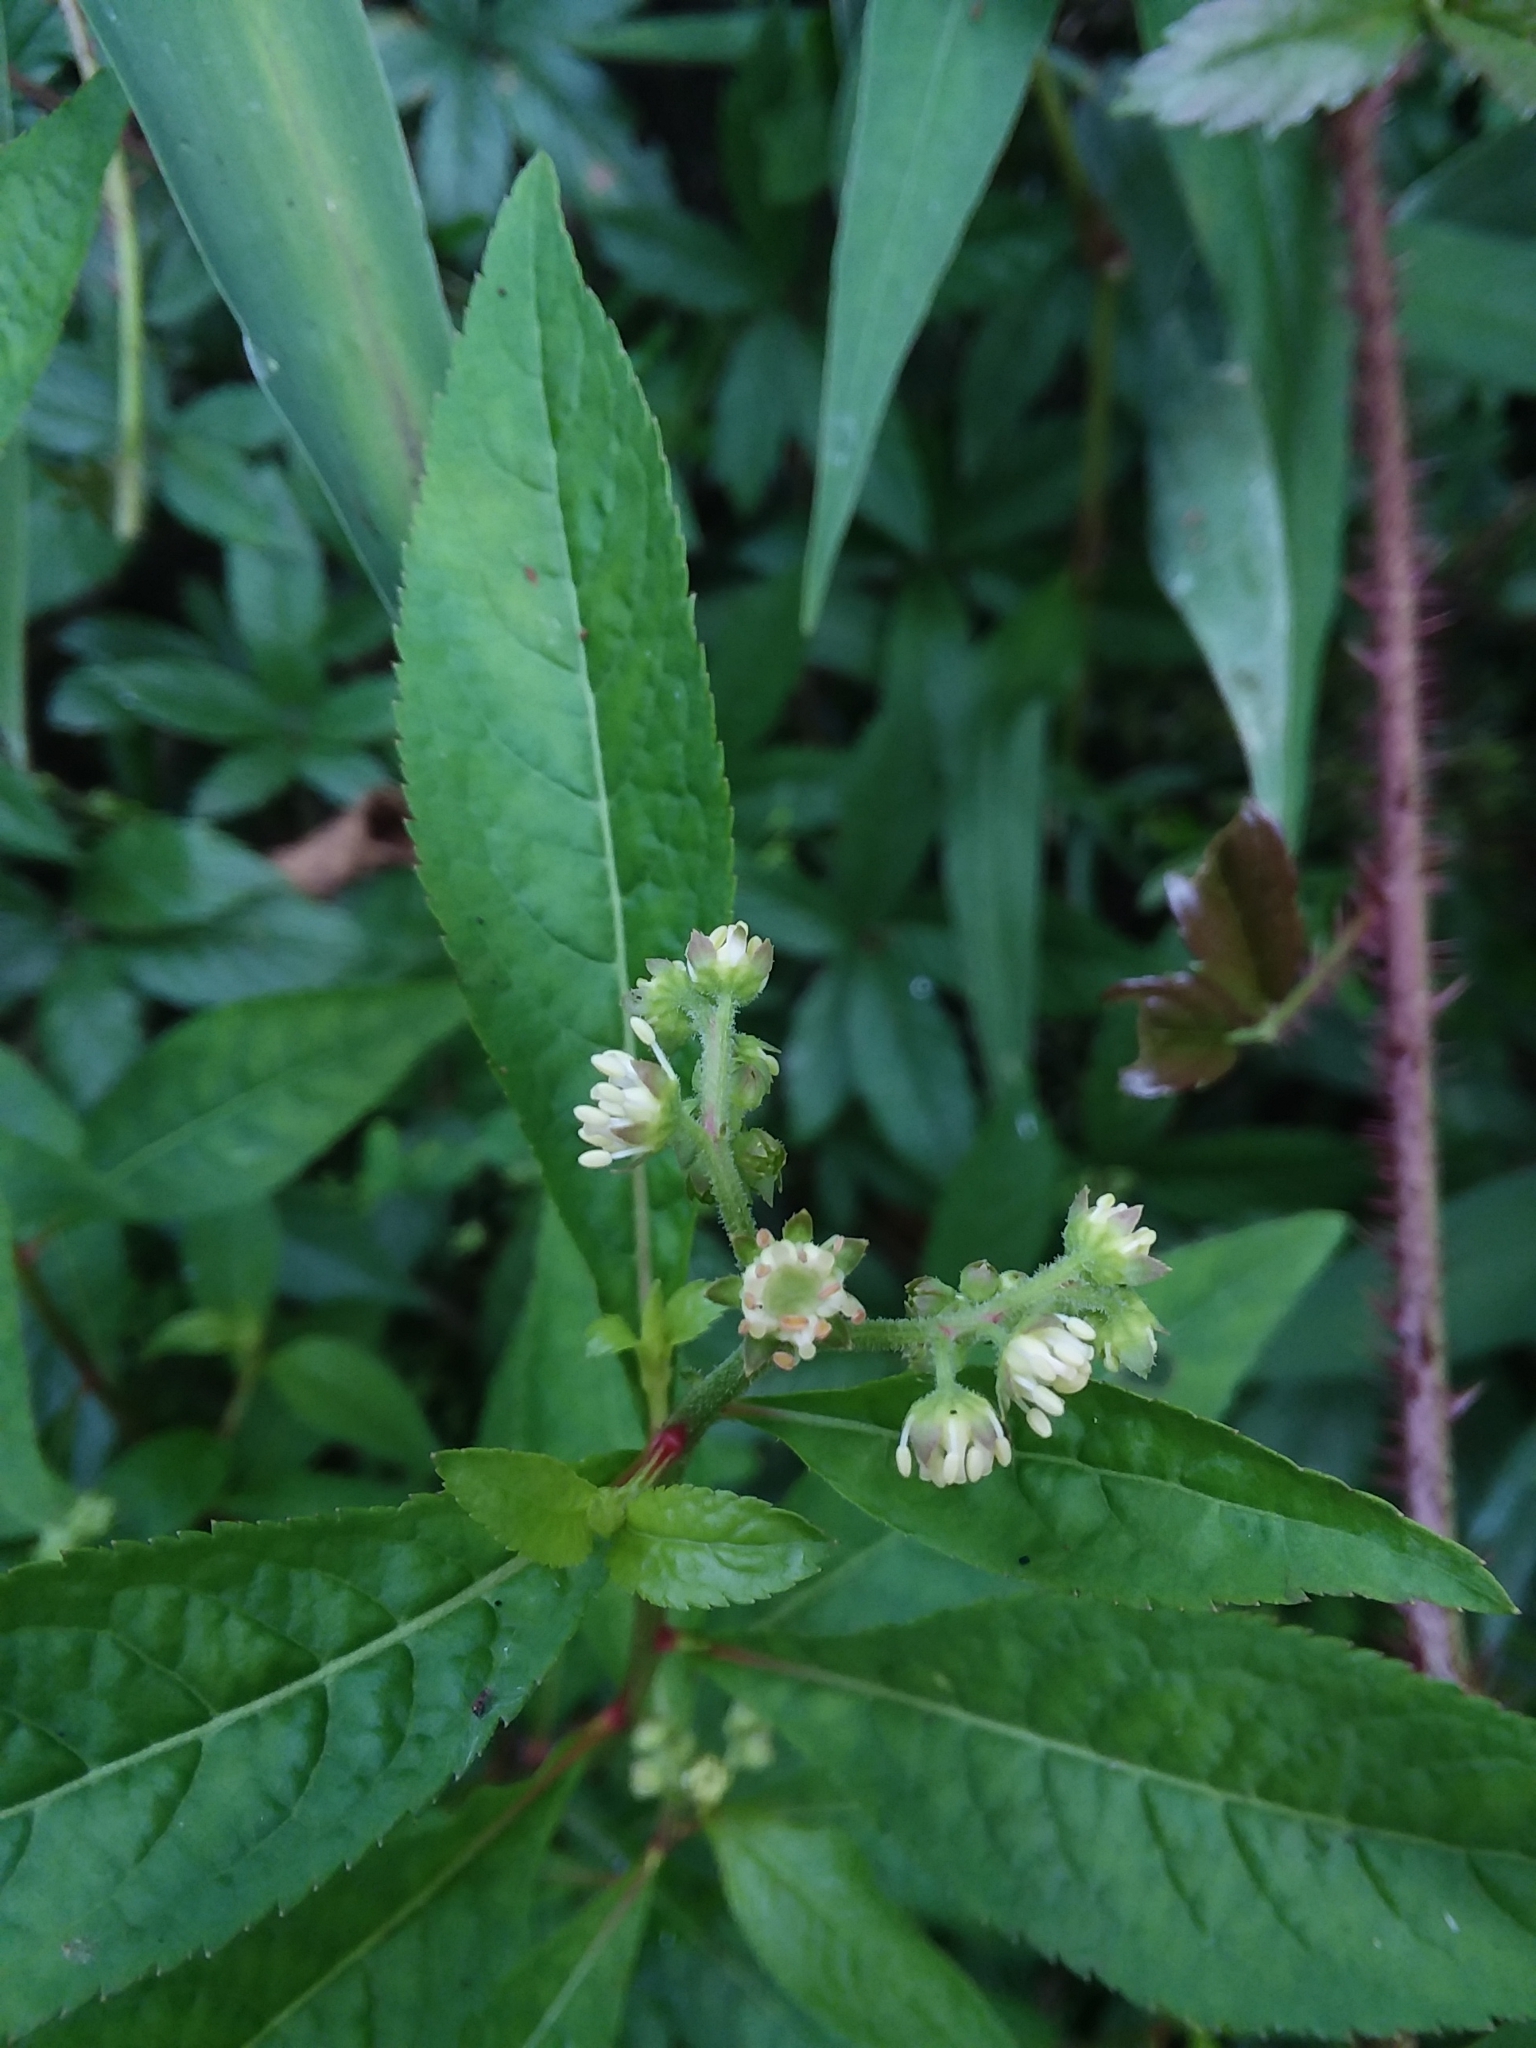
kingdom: Plantae
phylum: Tracheophyta
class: Magnoliopsida
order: Saxifragales
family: Penthoraceae
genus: Penthorum
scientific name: Penthorum sedoides
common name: Ditch stonecrop
